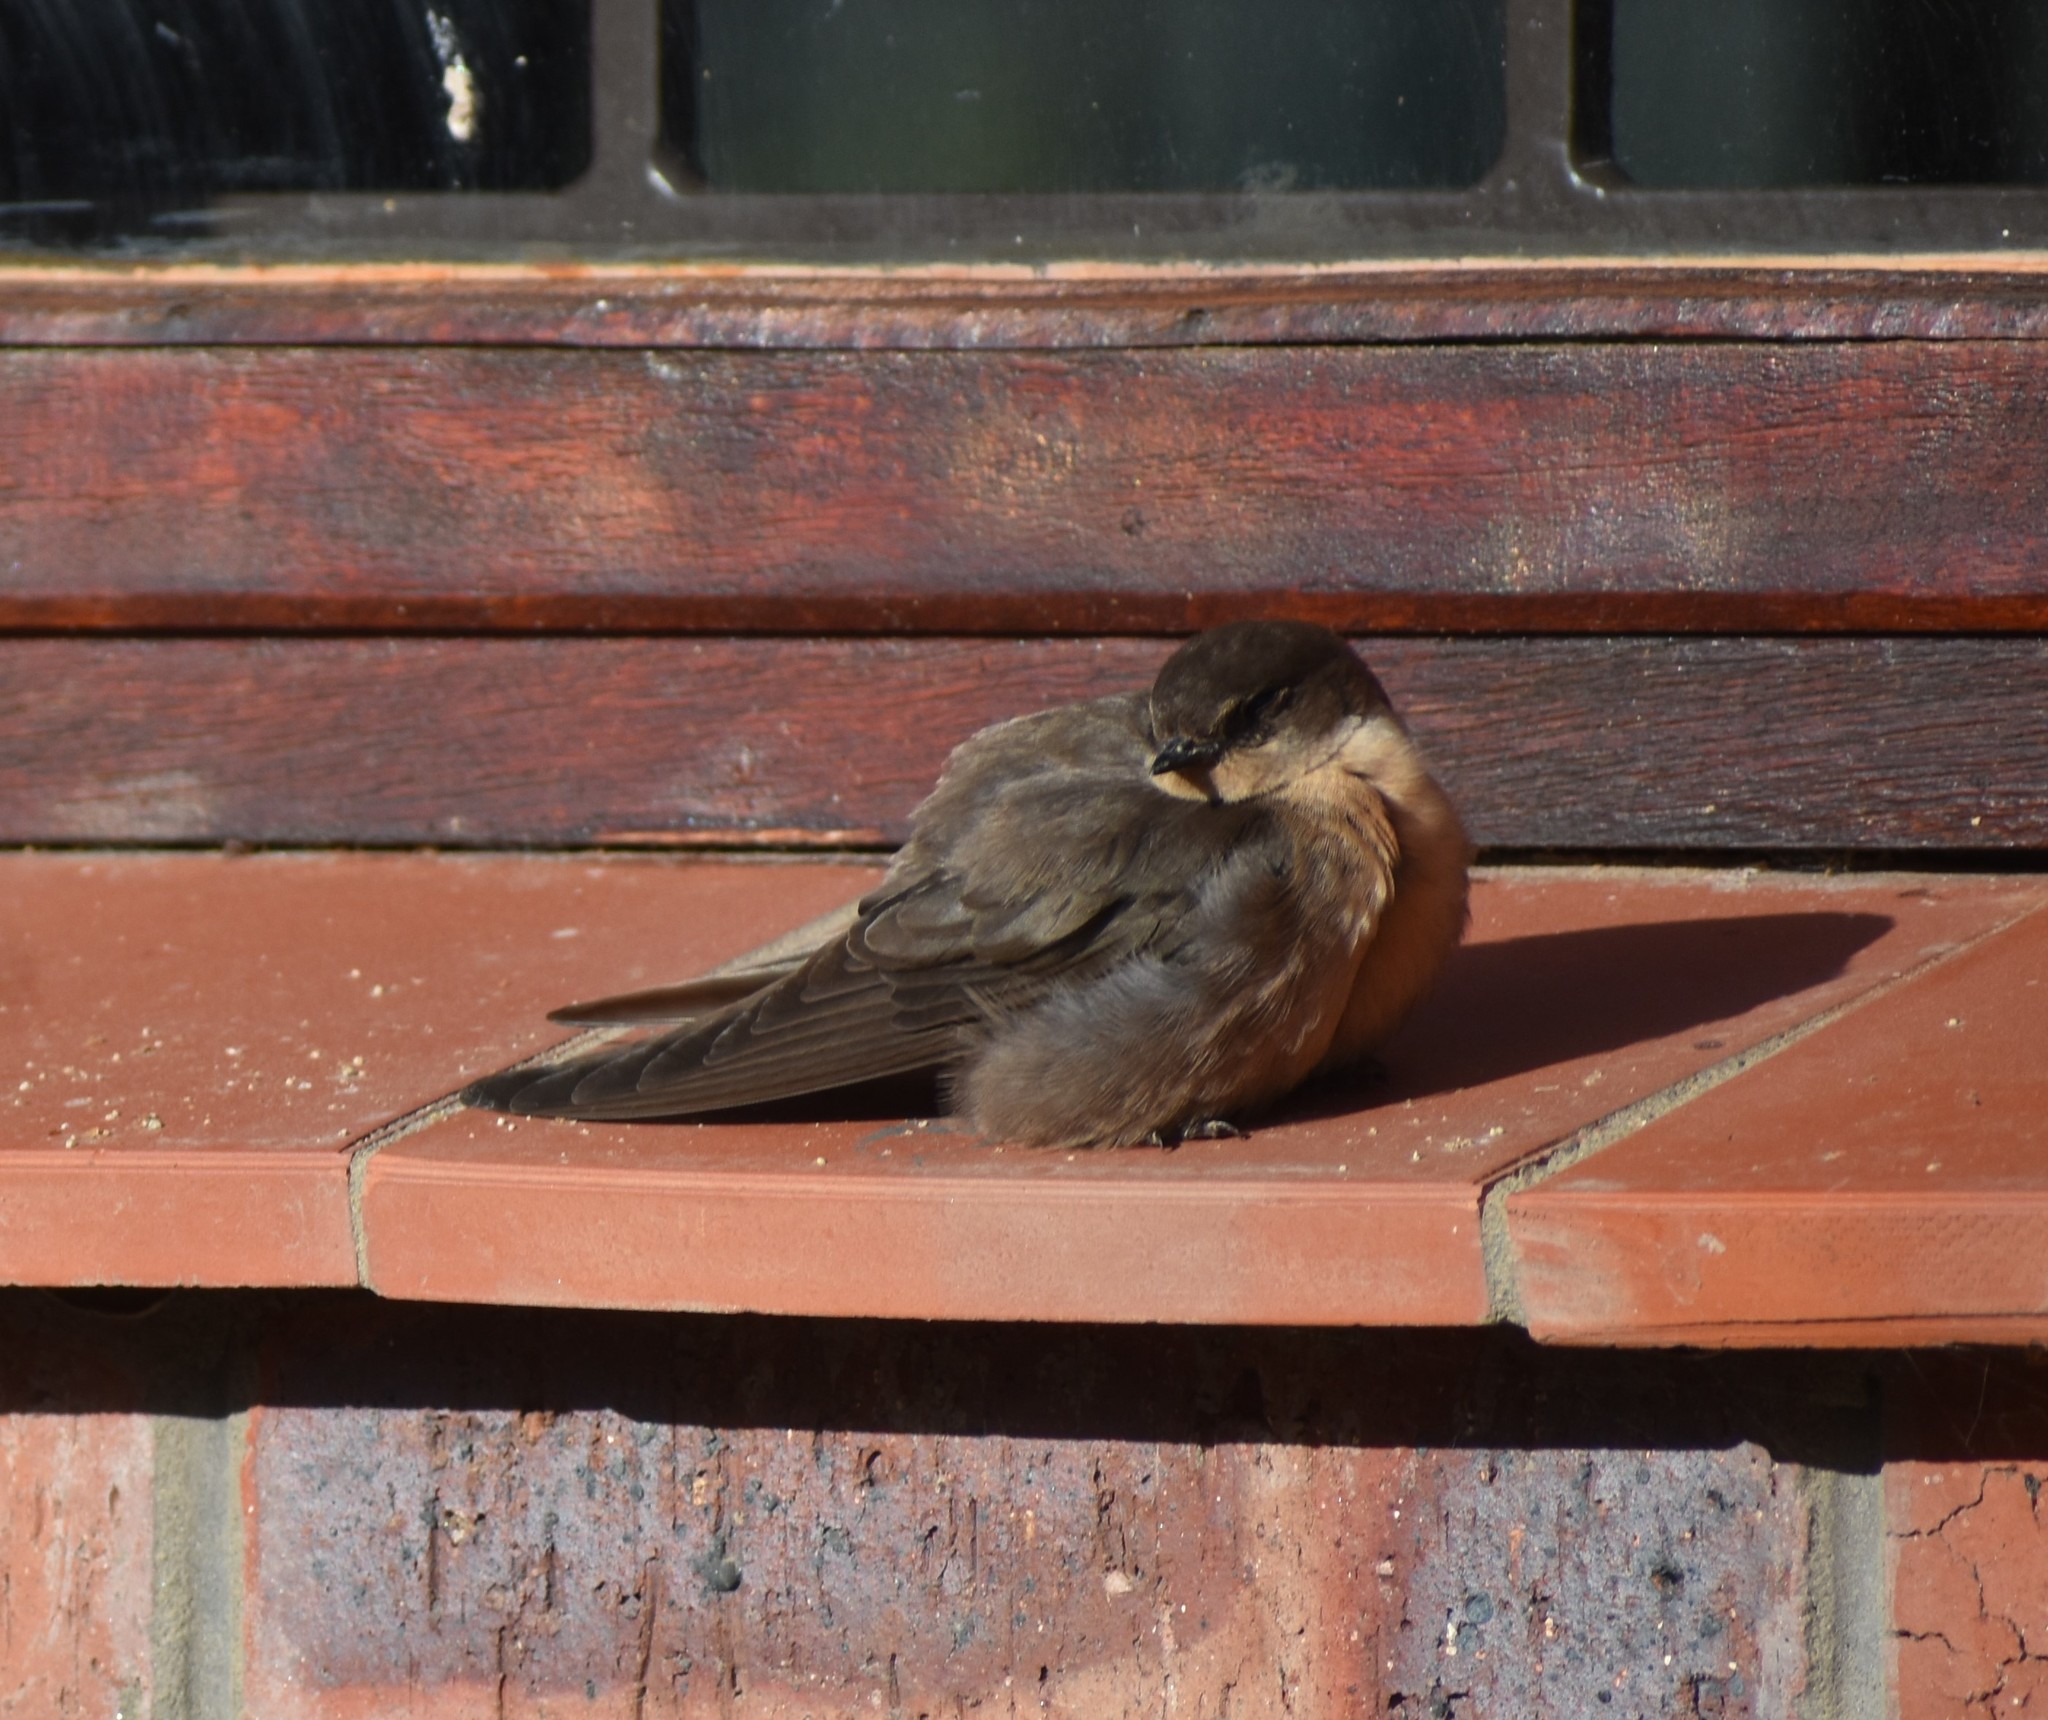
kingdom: Animalia
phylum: Chordata
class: Aves
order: Passeriformes
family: Hirundinidae
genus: Ptyonoprogne
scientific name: Ptyonoprogne fuligula
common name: Rock martin
